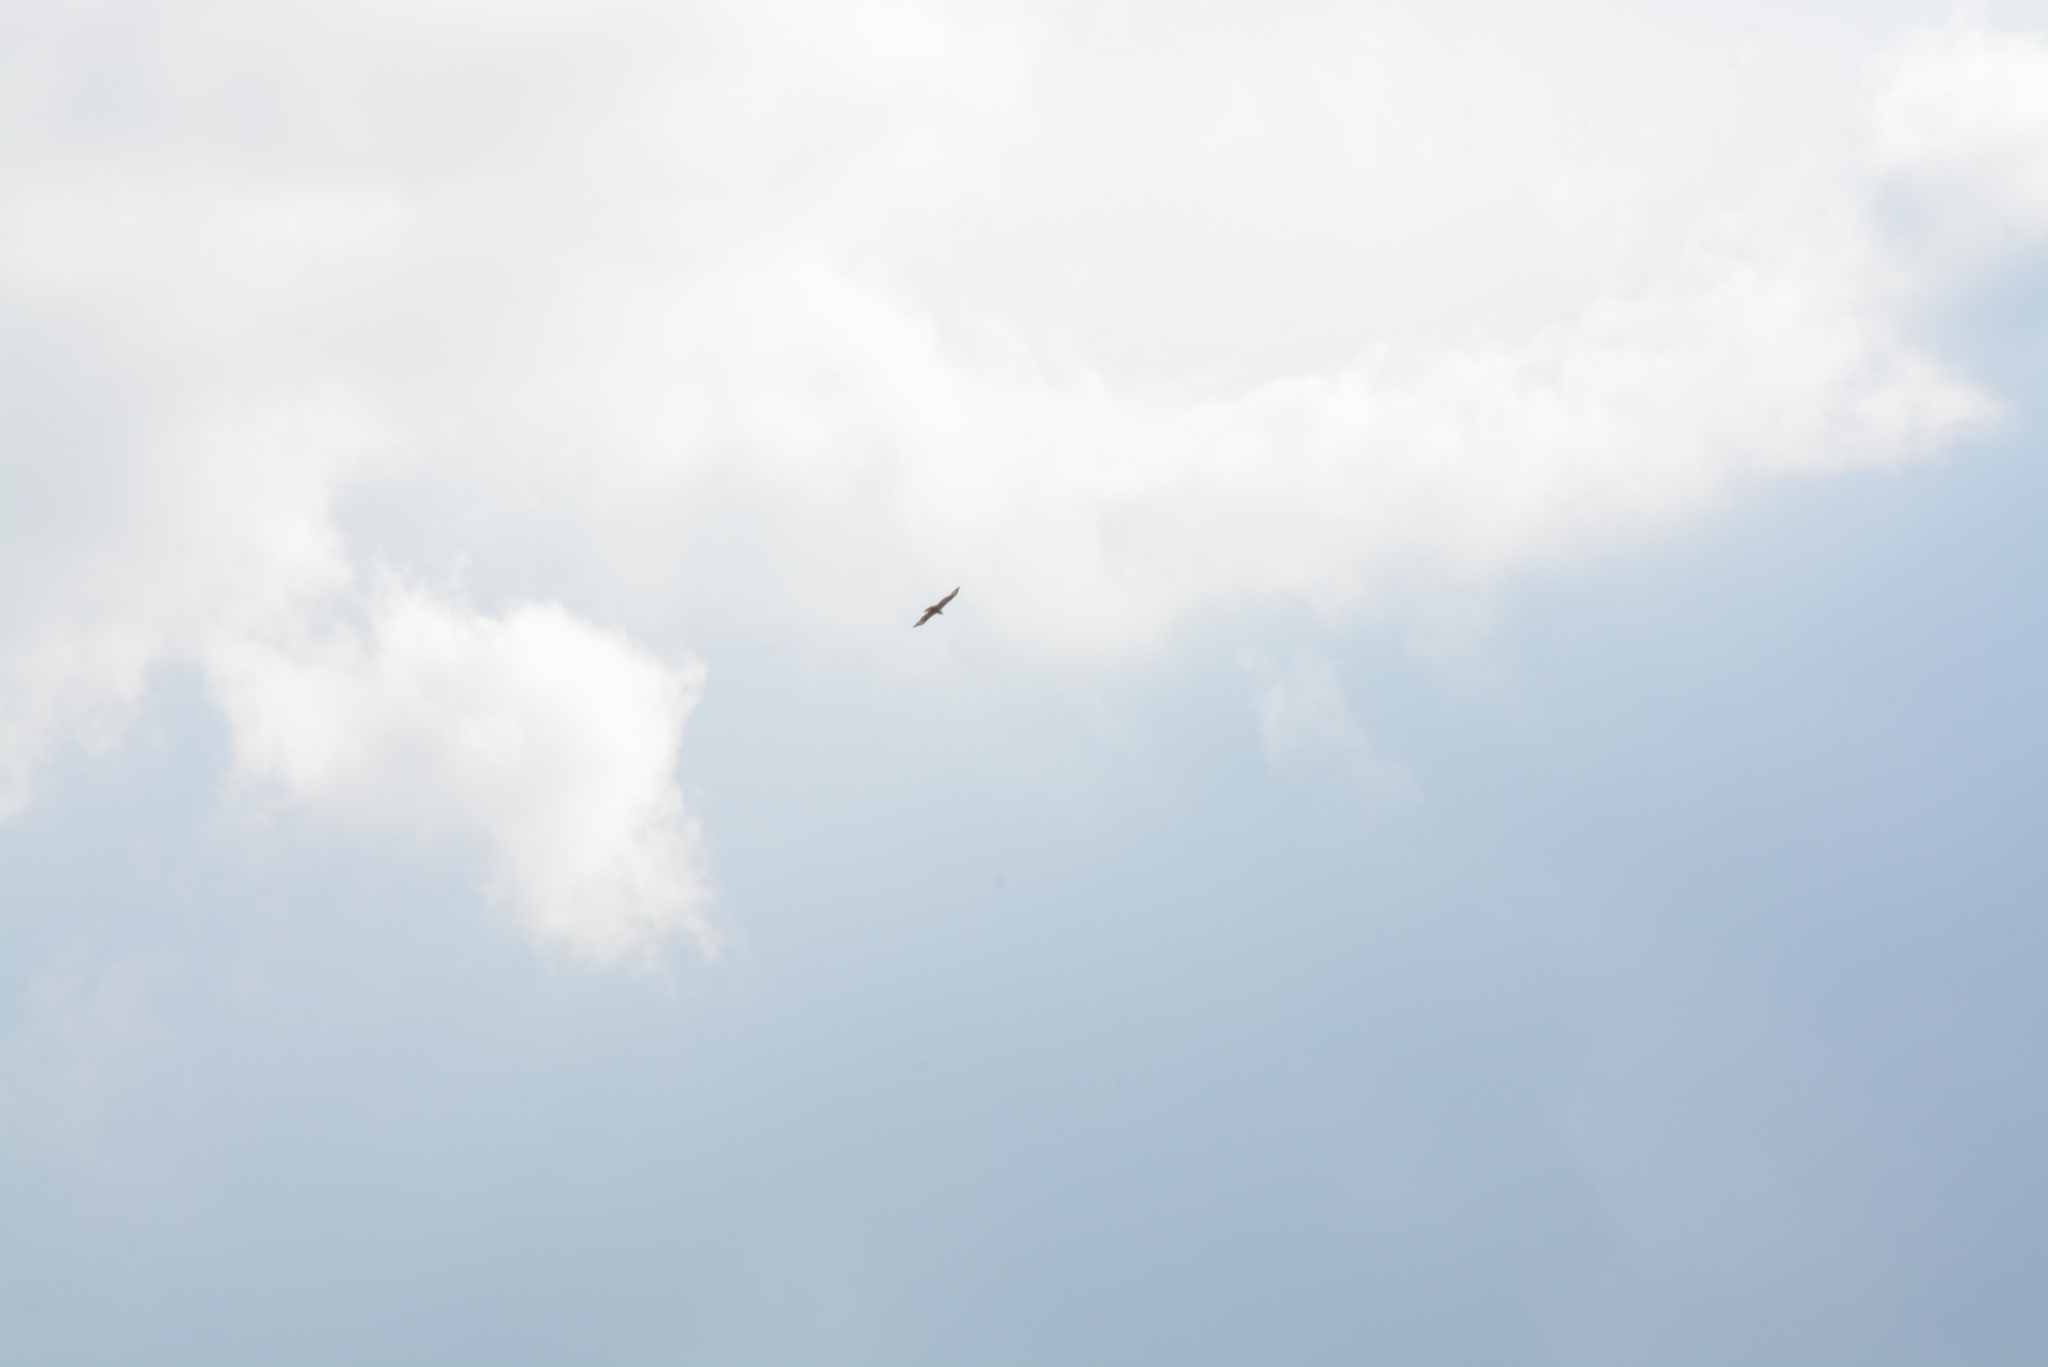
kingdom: Animalia
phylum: Chordata
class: Aves
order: Accipitriformes
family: Accipitridae
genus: Buteo
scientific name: Buteo rufinus
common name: Long-legged buzzard
